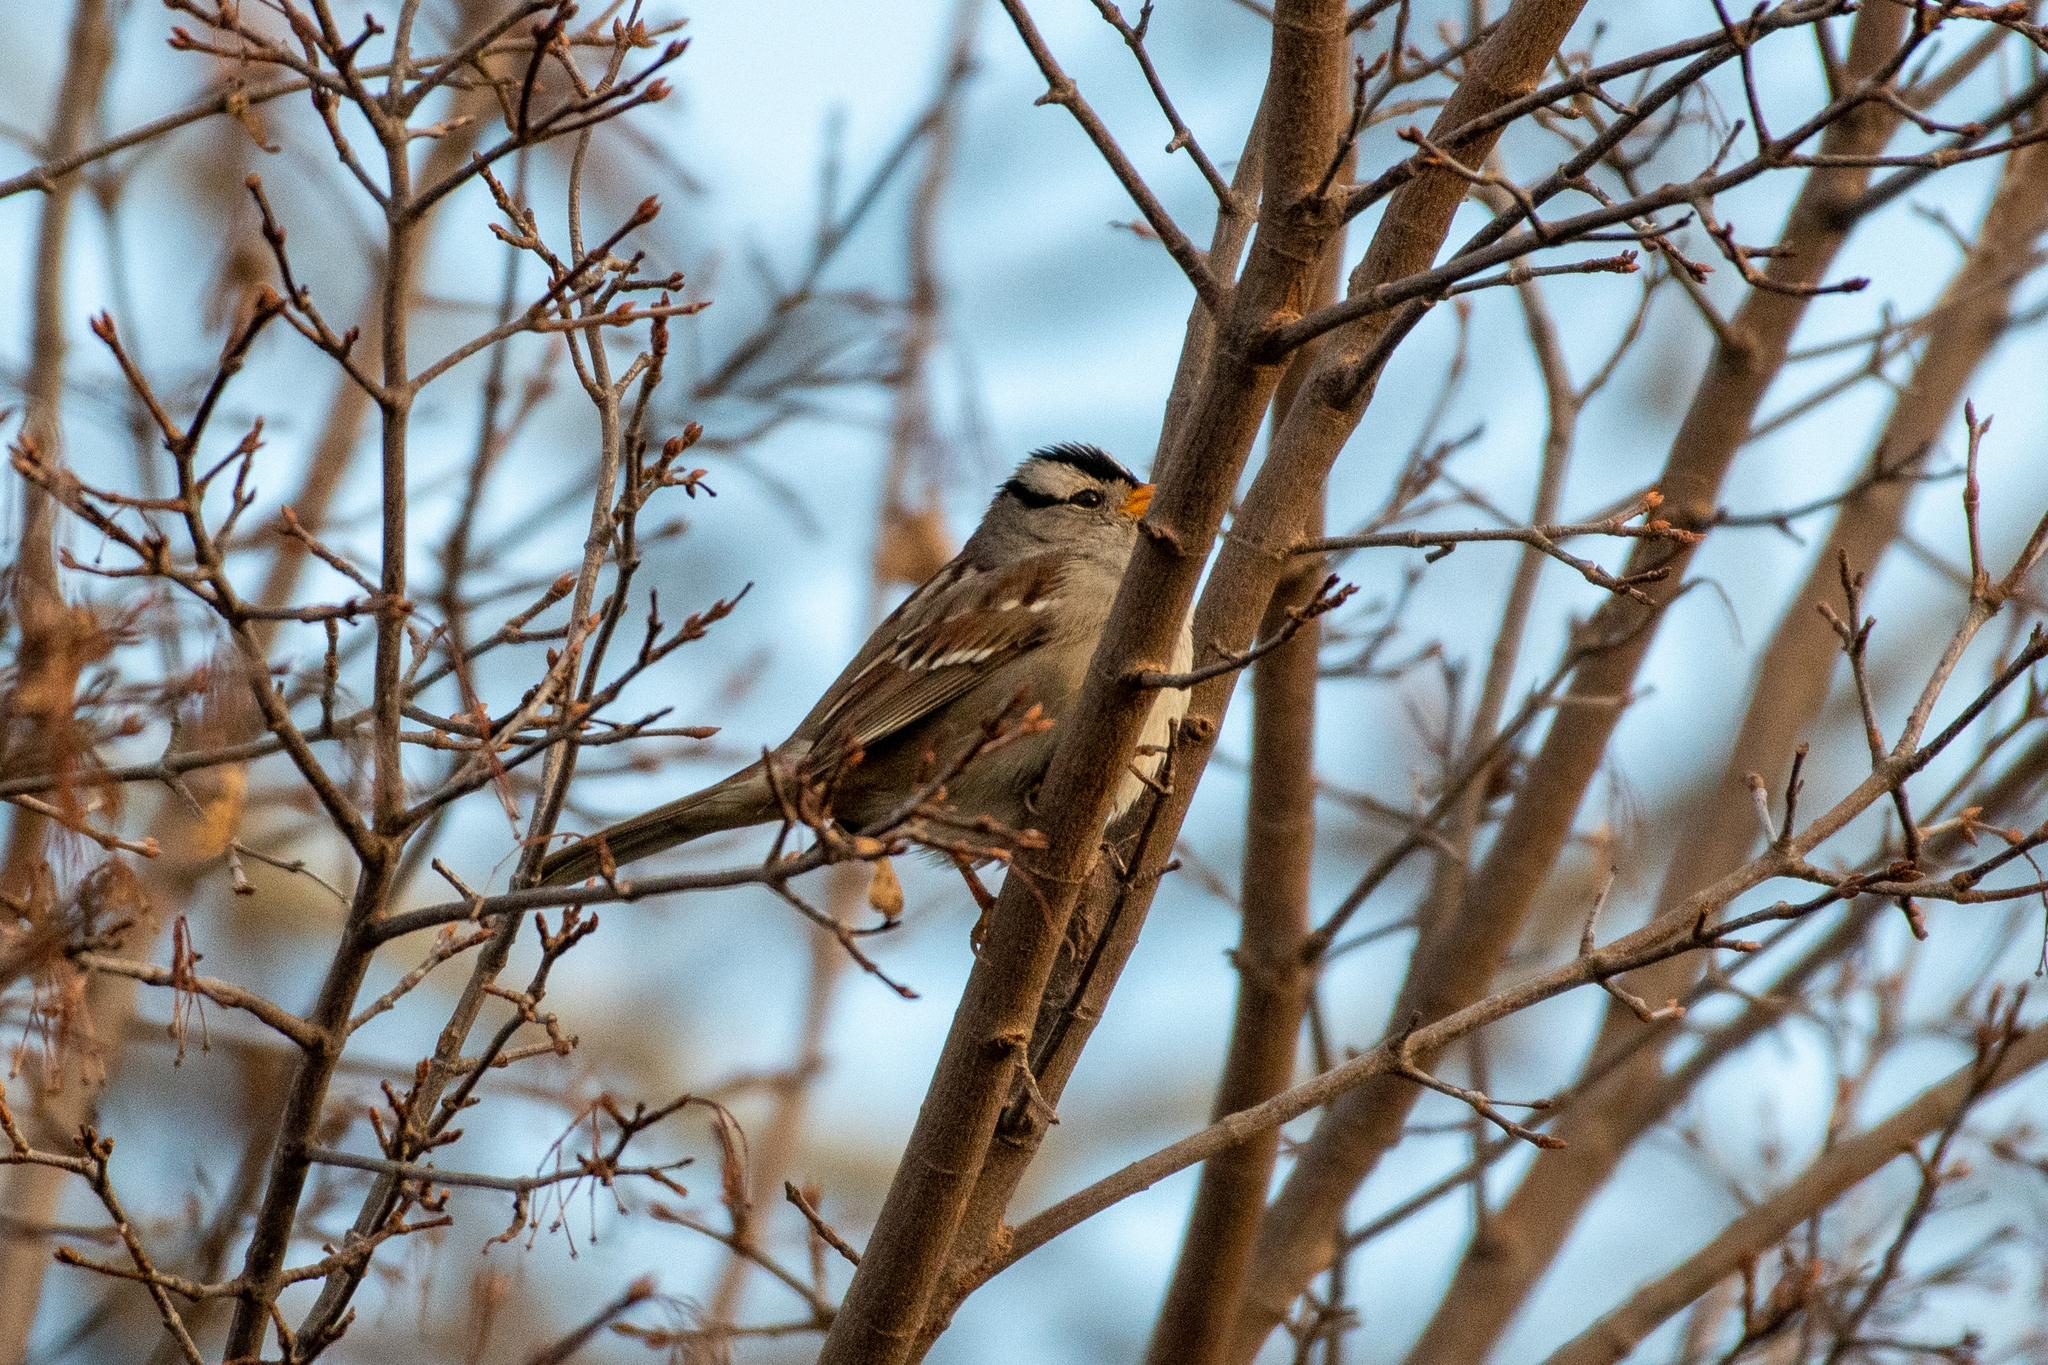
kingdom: Animalia
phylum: Chordata
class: Aves
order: Passeriformes
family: Passerellidae
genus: Zonotrichia
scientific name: Zonotrichia leucophrys
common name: White-crowned sparrow
